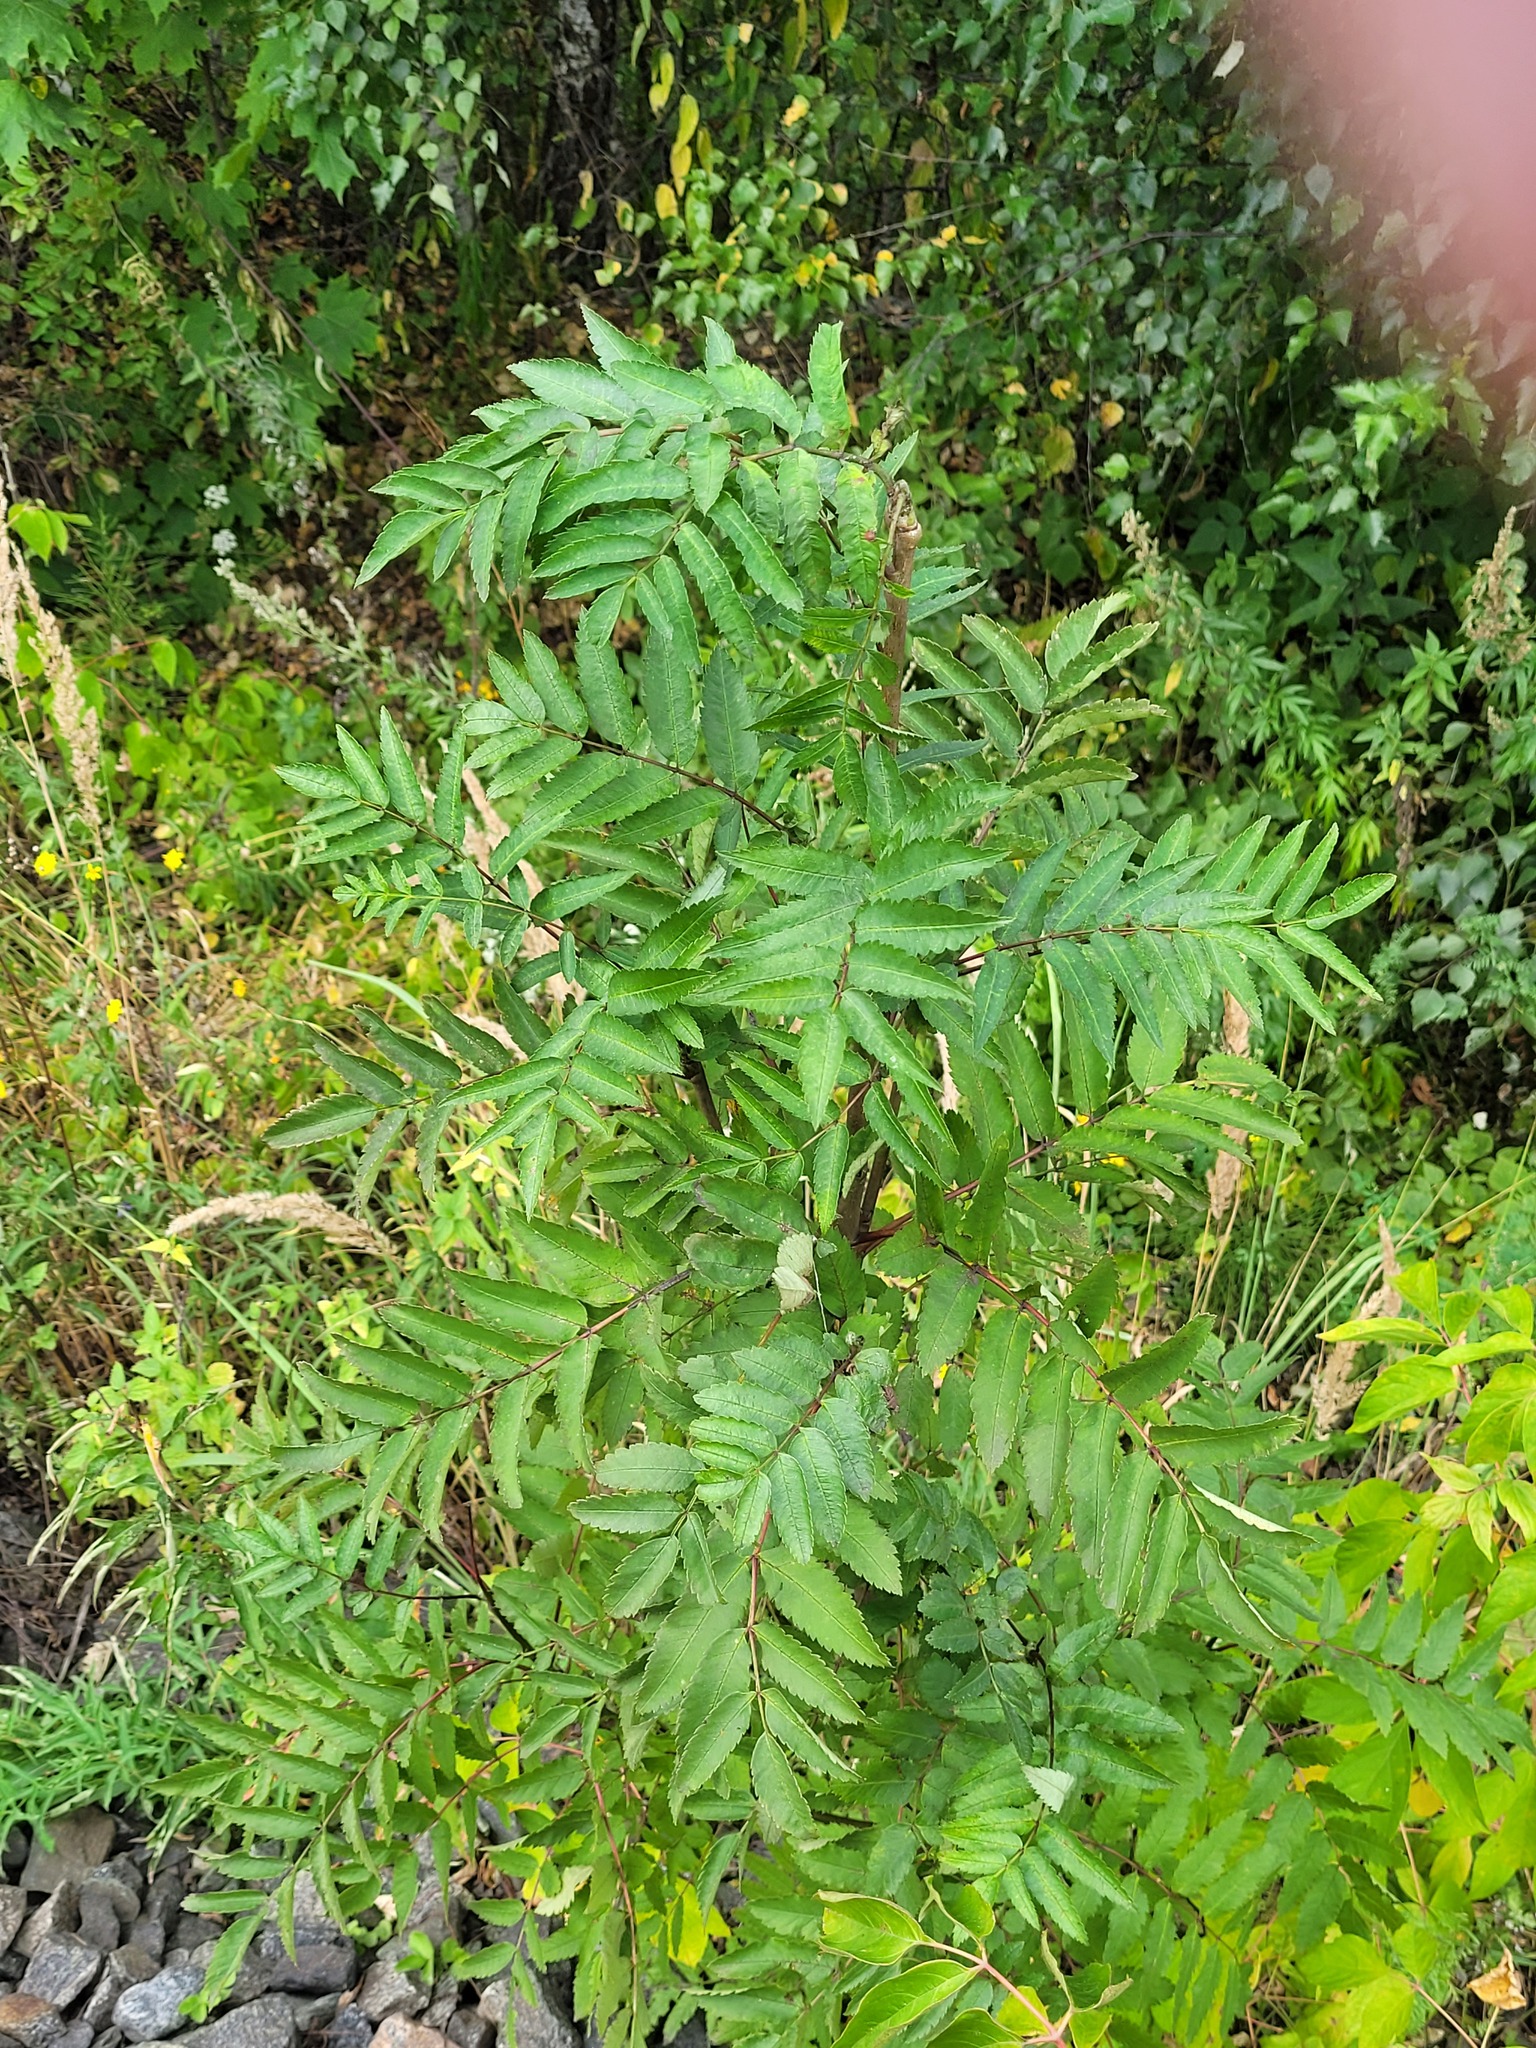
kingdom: Plantae
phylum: Tracheophyta
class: Magnoliopsida
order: Rosales
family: Rosaceae
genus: Sorbus
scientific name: Sorbus aucuparia
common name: Rowan
